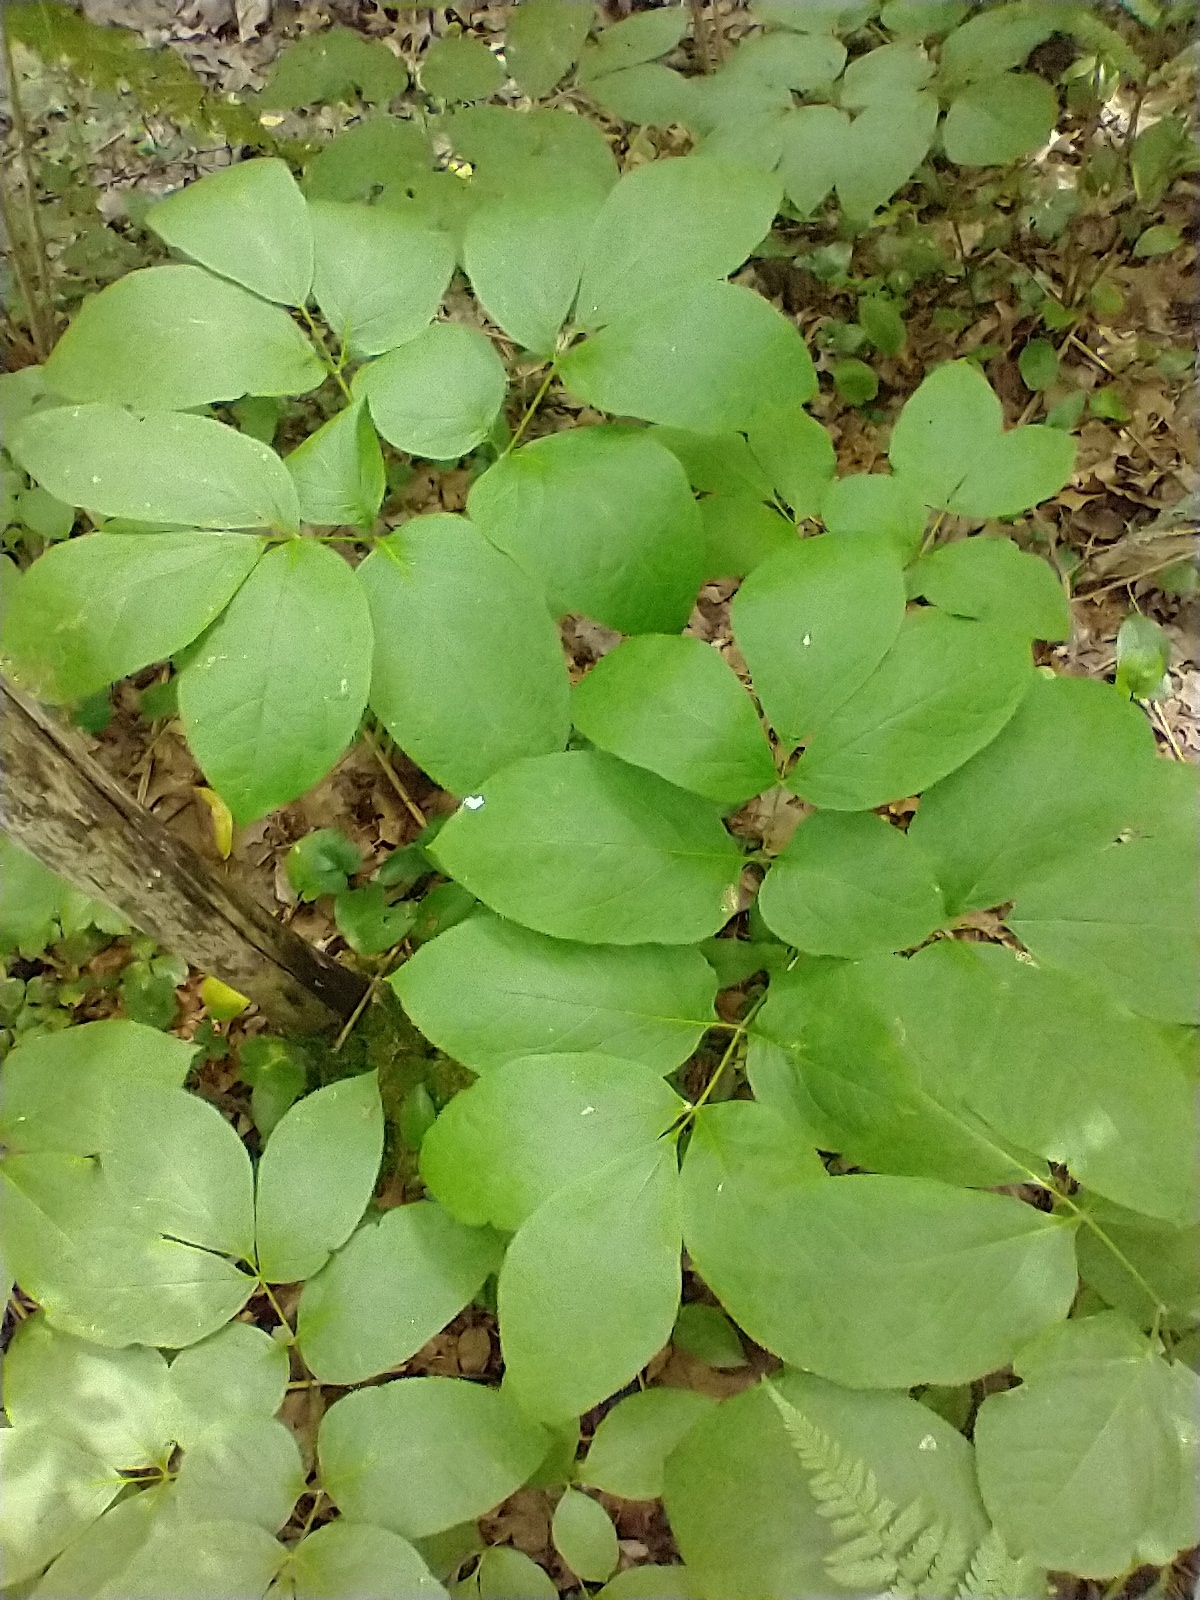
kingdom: Plantae
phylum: Tracheophyta
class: Magnoliopsida
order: Apiales
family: Araliaceae
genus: Aralia
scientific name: Aralia nudicaulis
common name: Wild sarsaparilla
